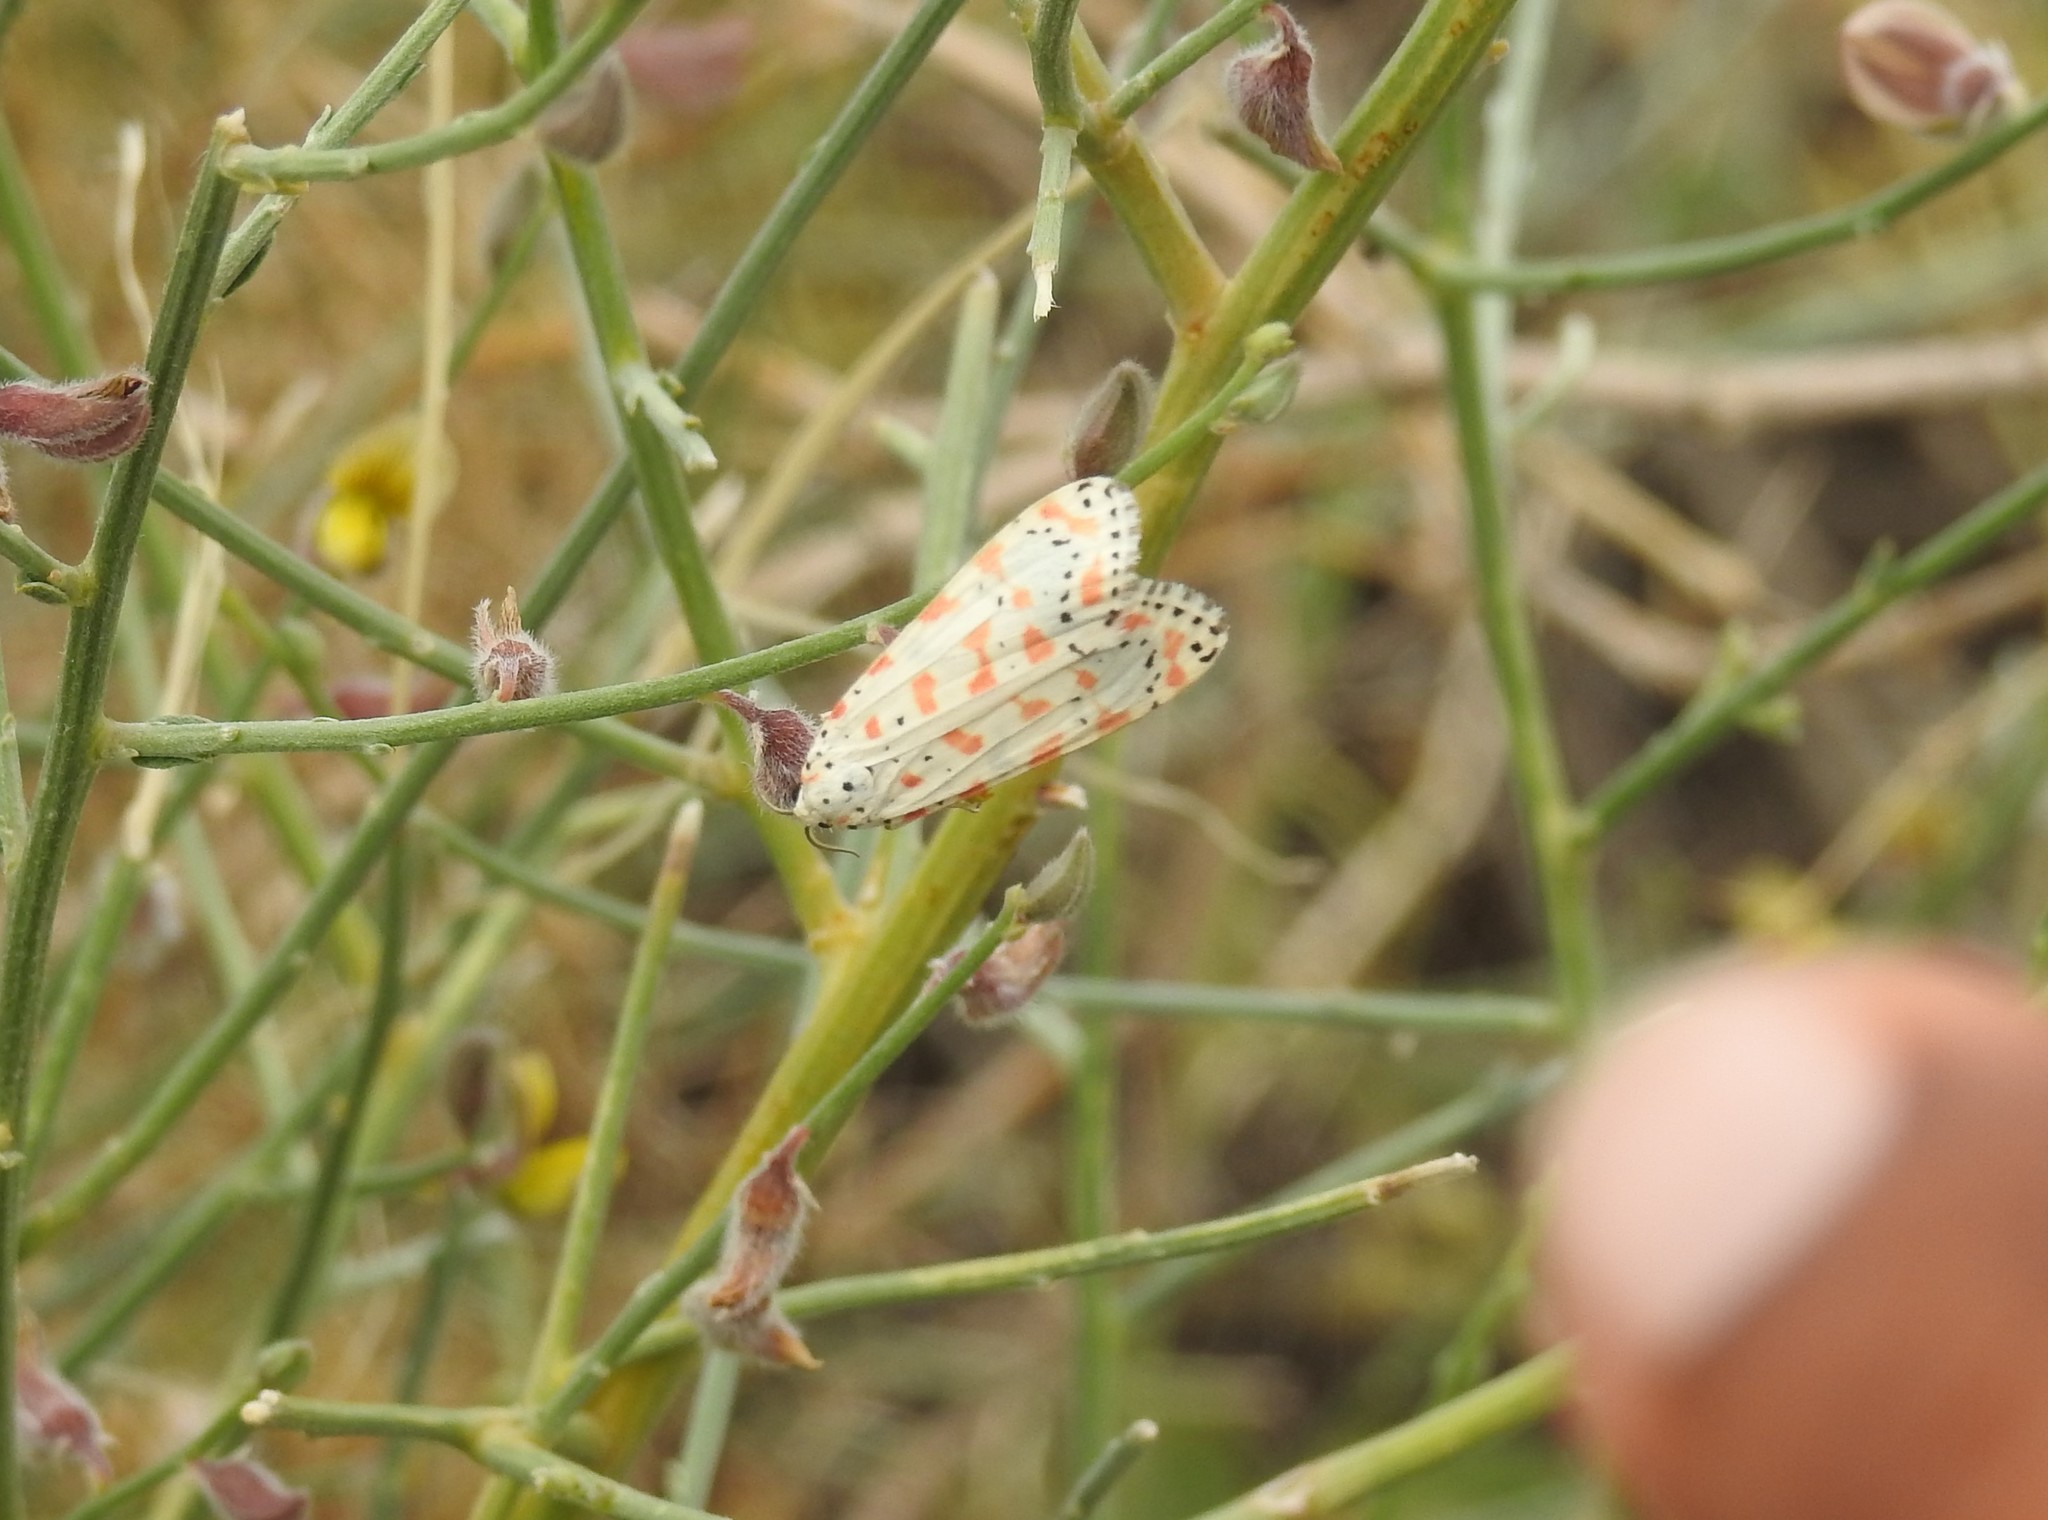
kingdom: Animalia
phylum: Arthropoda
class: Insecta
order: Lepidoptera
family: Erebidae
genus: Utetheisa
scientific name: Utetheisa lotrix
